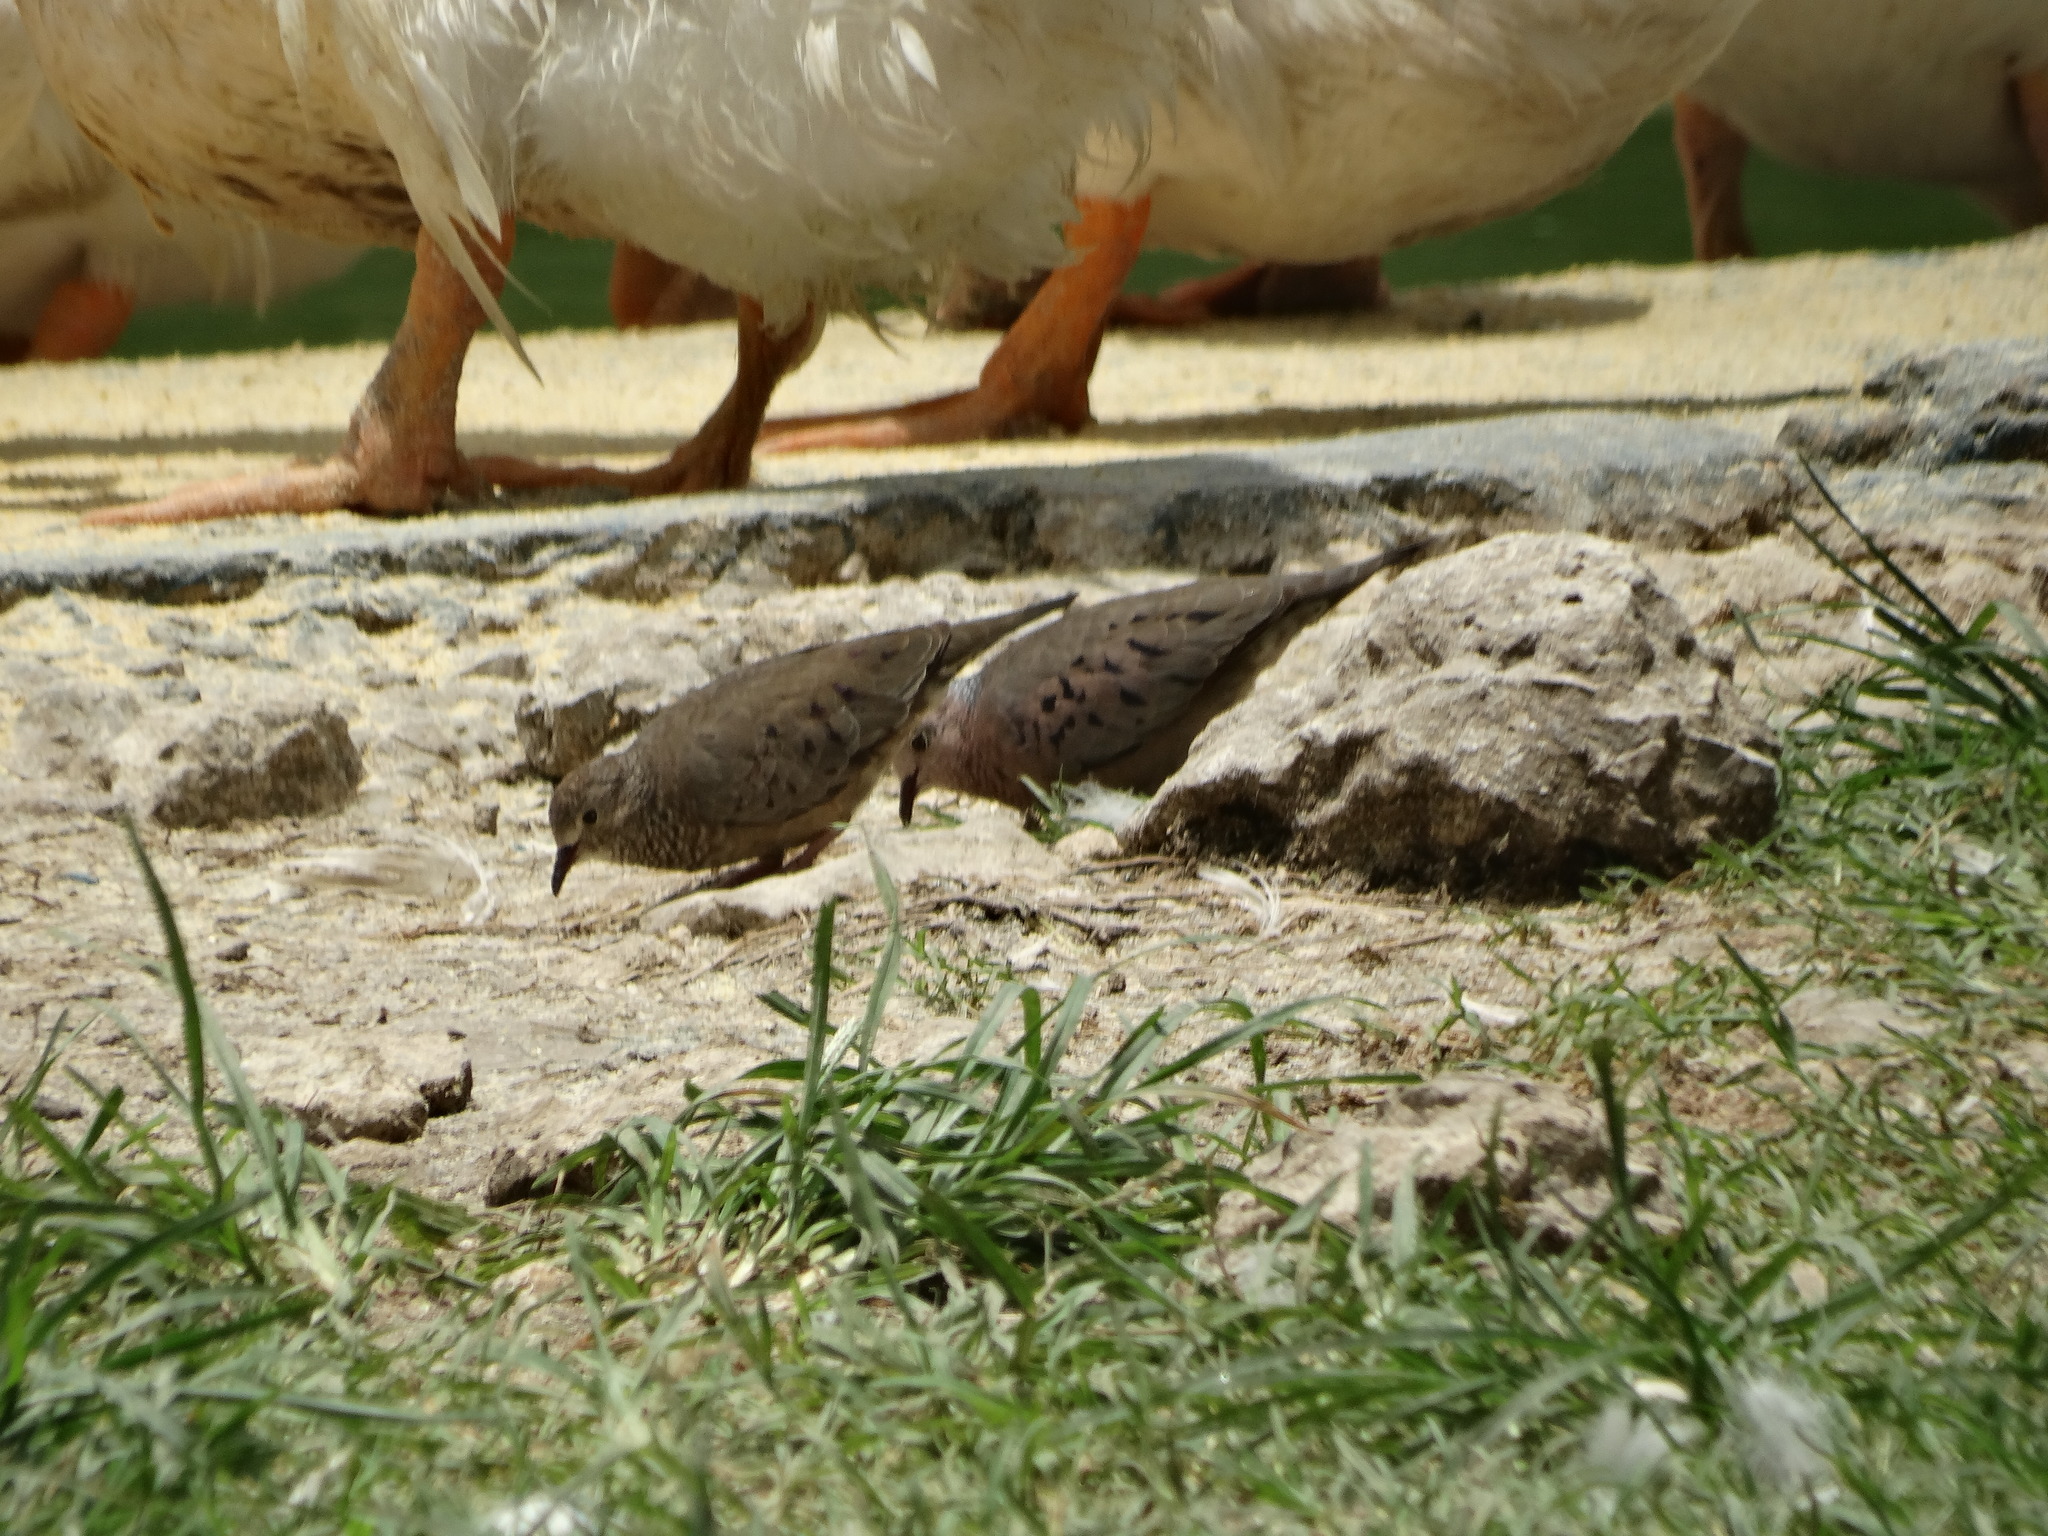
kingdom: Animalia
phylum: Chordata
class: Aves
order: Columbiformes
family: Columbidae
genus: Columbina
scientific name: Columbina passerina
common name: Common ground-dove
